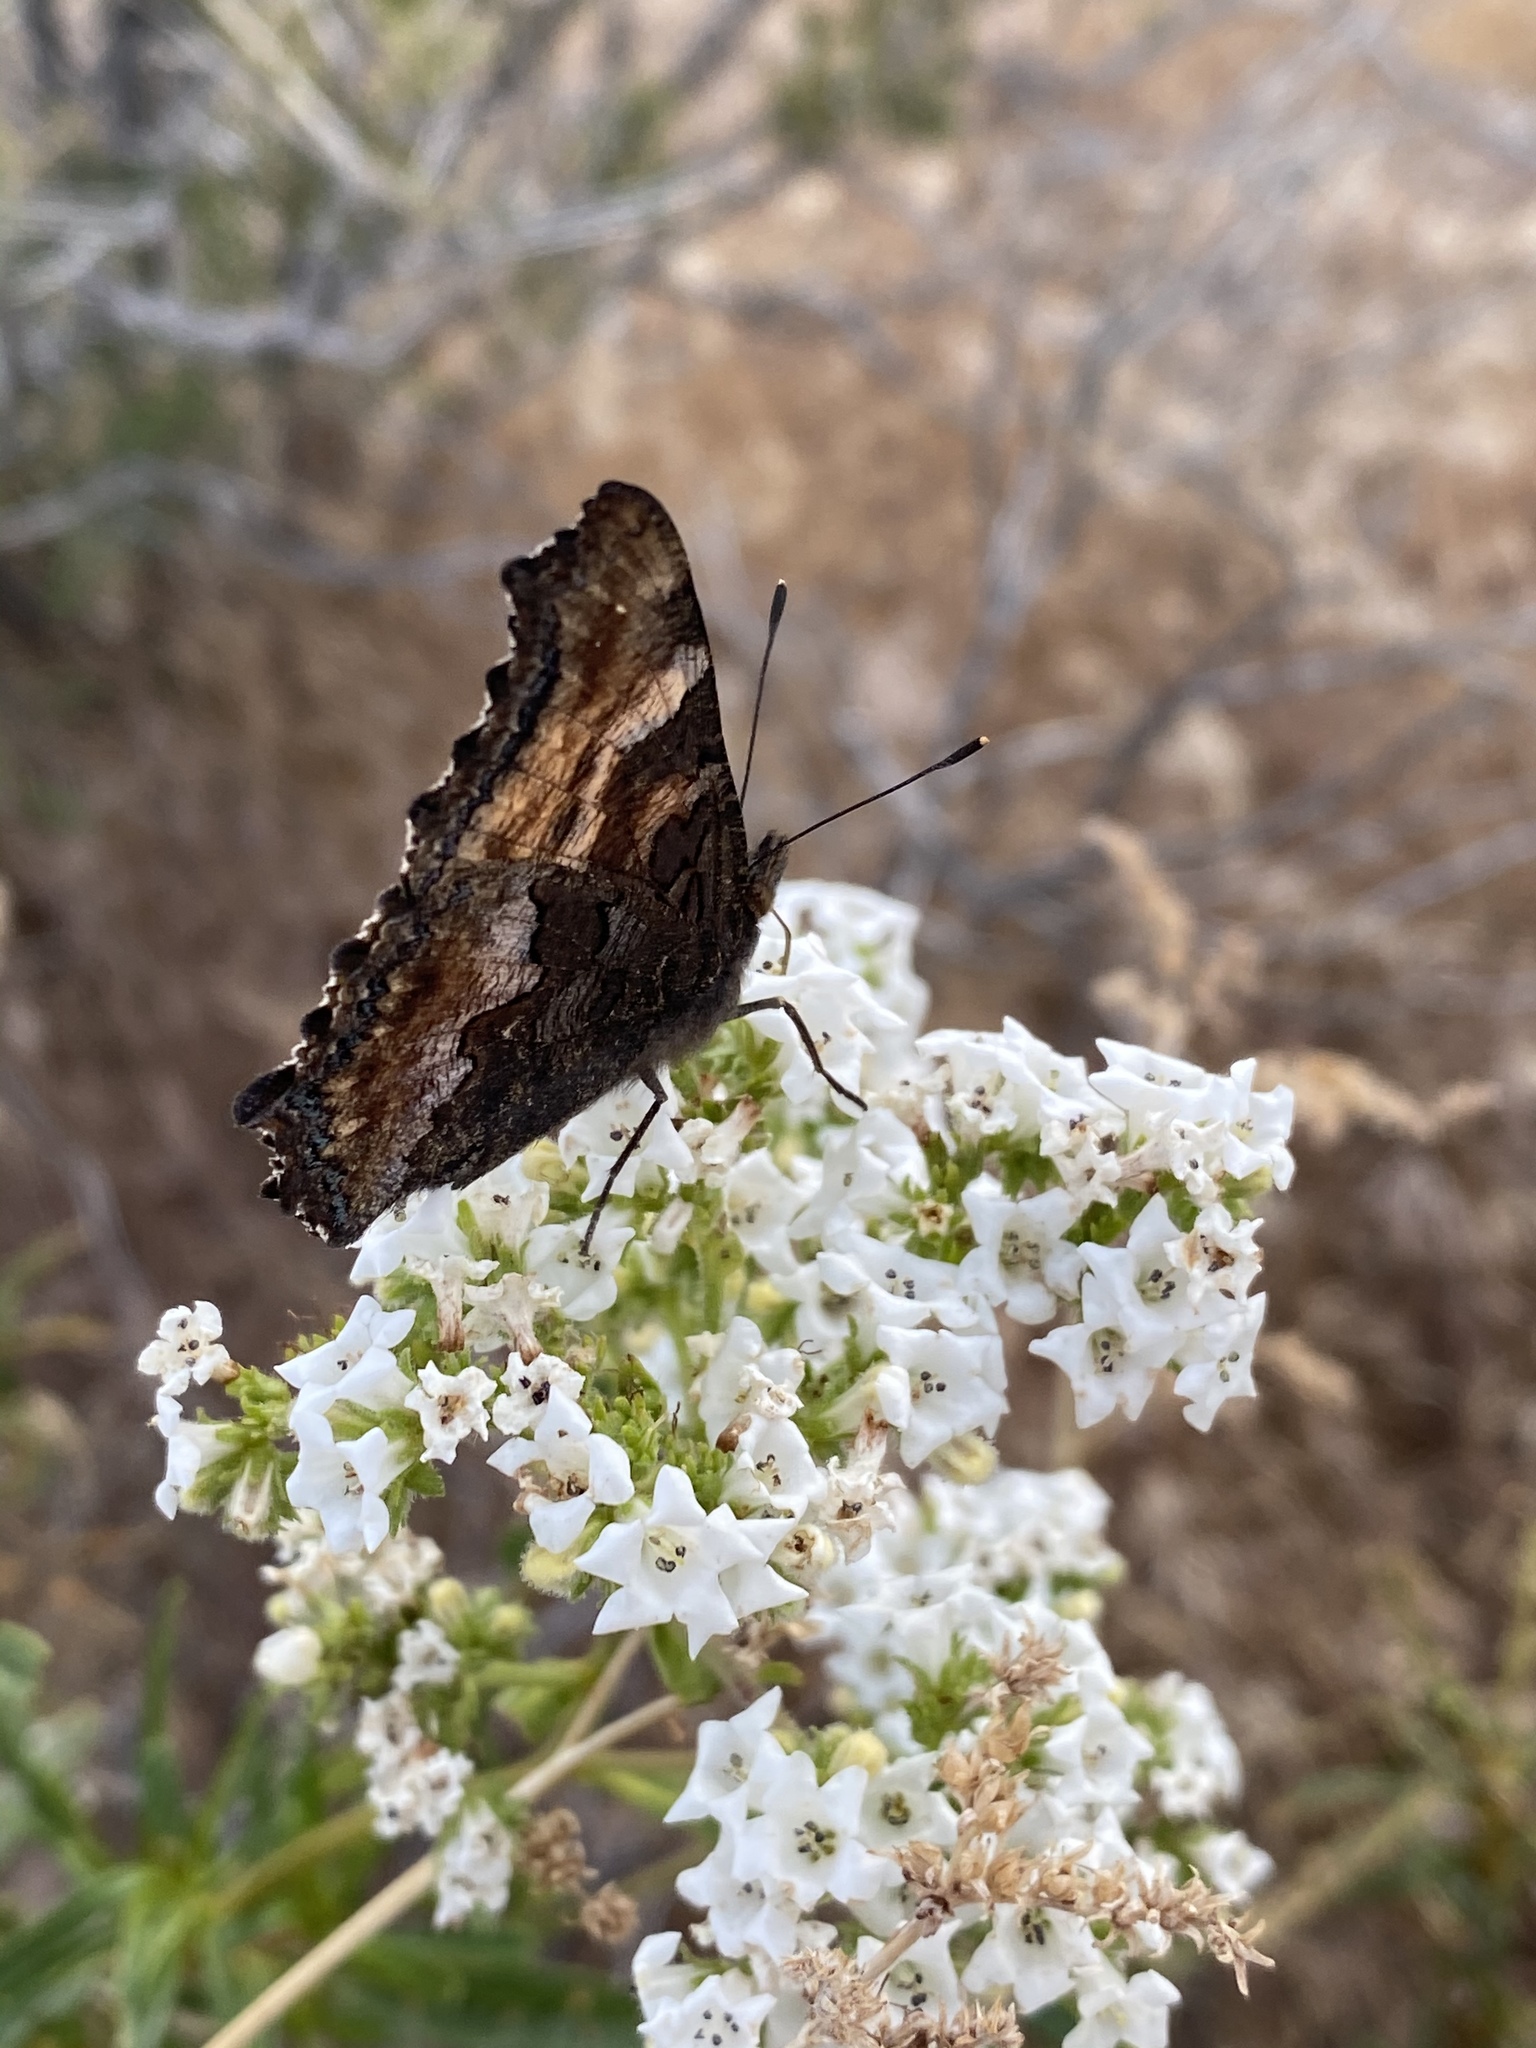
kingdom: Animalia
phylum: Arthropoda
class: Insecta
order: Lepidoptera
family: Nymphalidae
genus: Nymphalis
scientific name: Nymphalis californica
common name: California tortoiseshell
